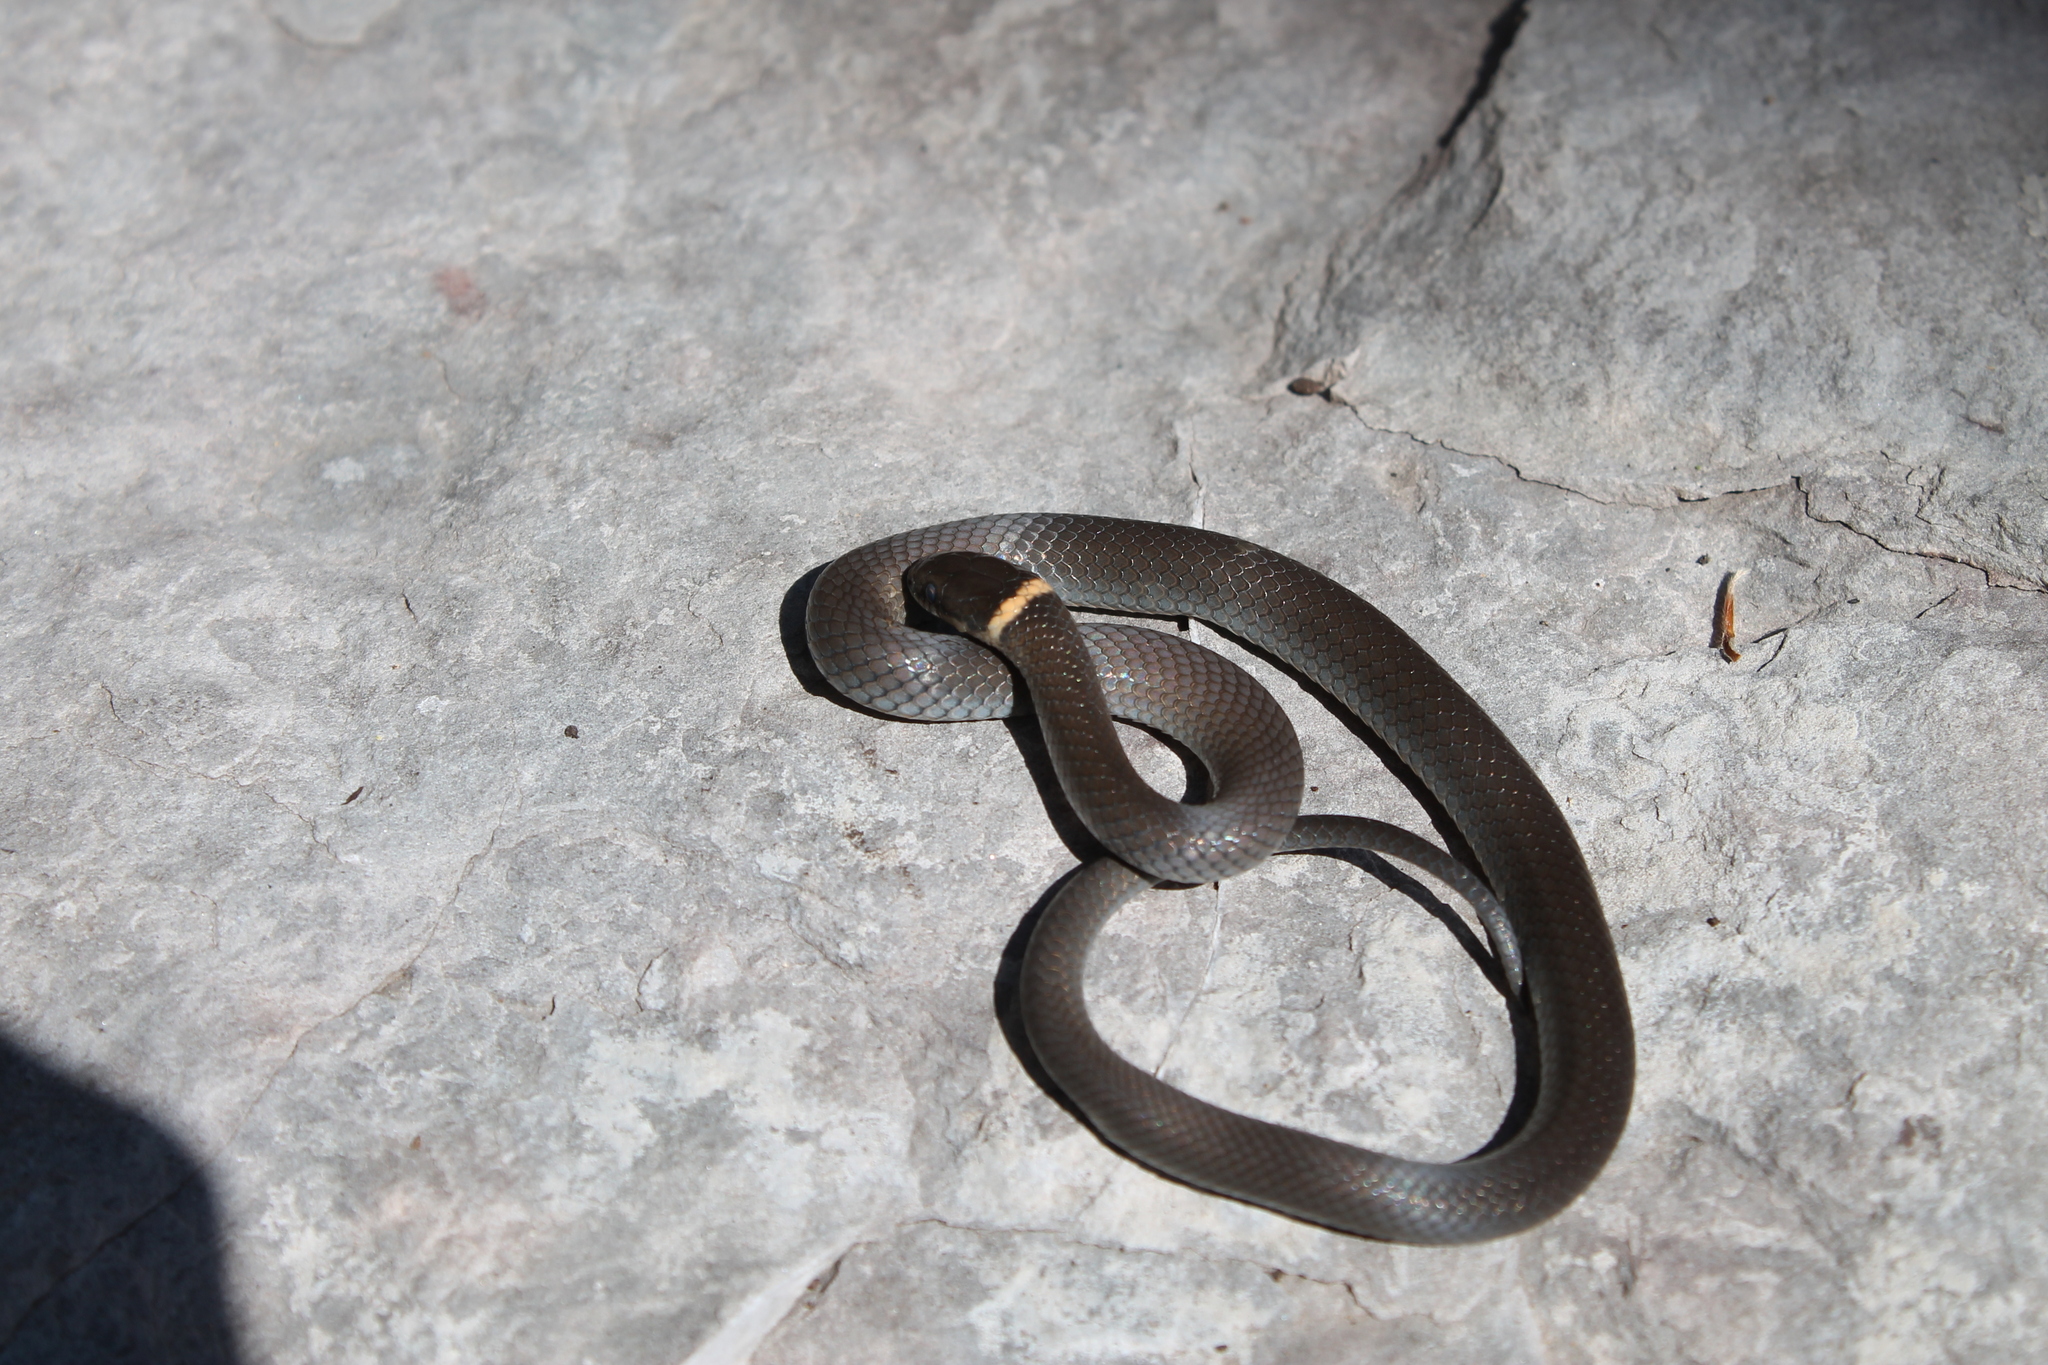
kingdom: Animalia
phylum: Chordata
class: Squamata
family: Colubridae
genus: Diadophis
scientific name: Diadophis punctatus
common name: Ringneck snake
